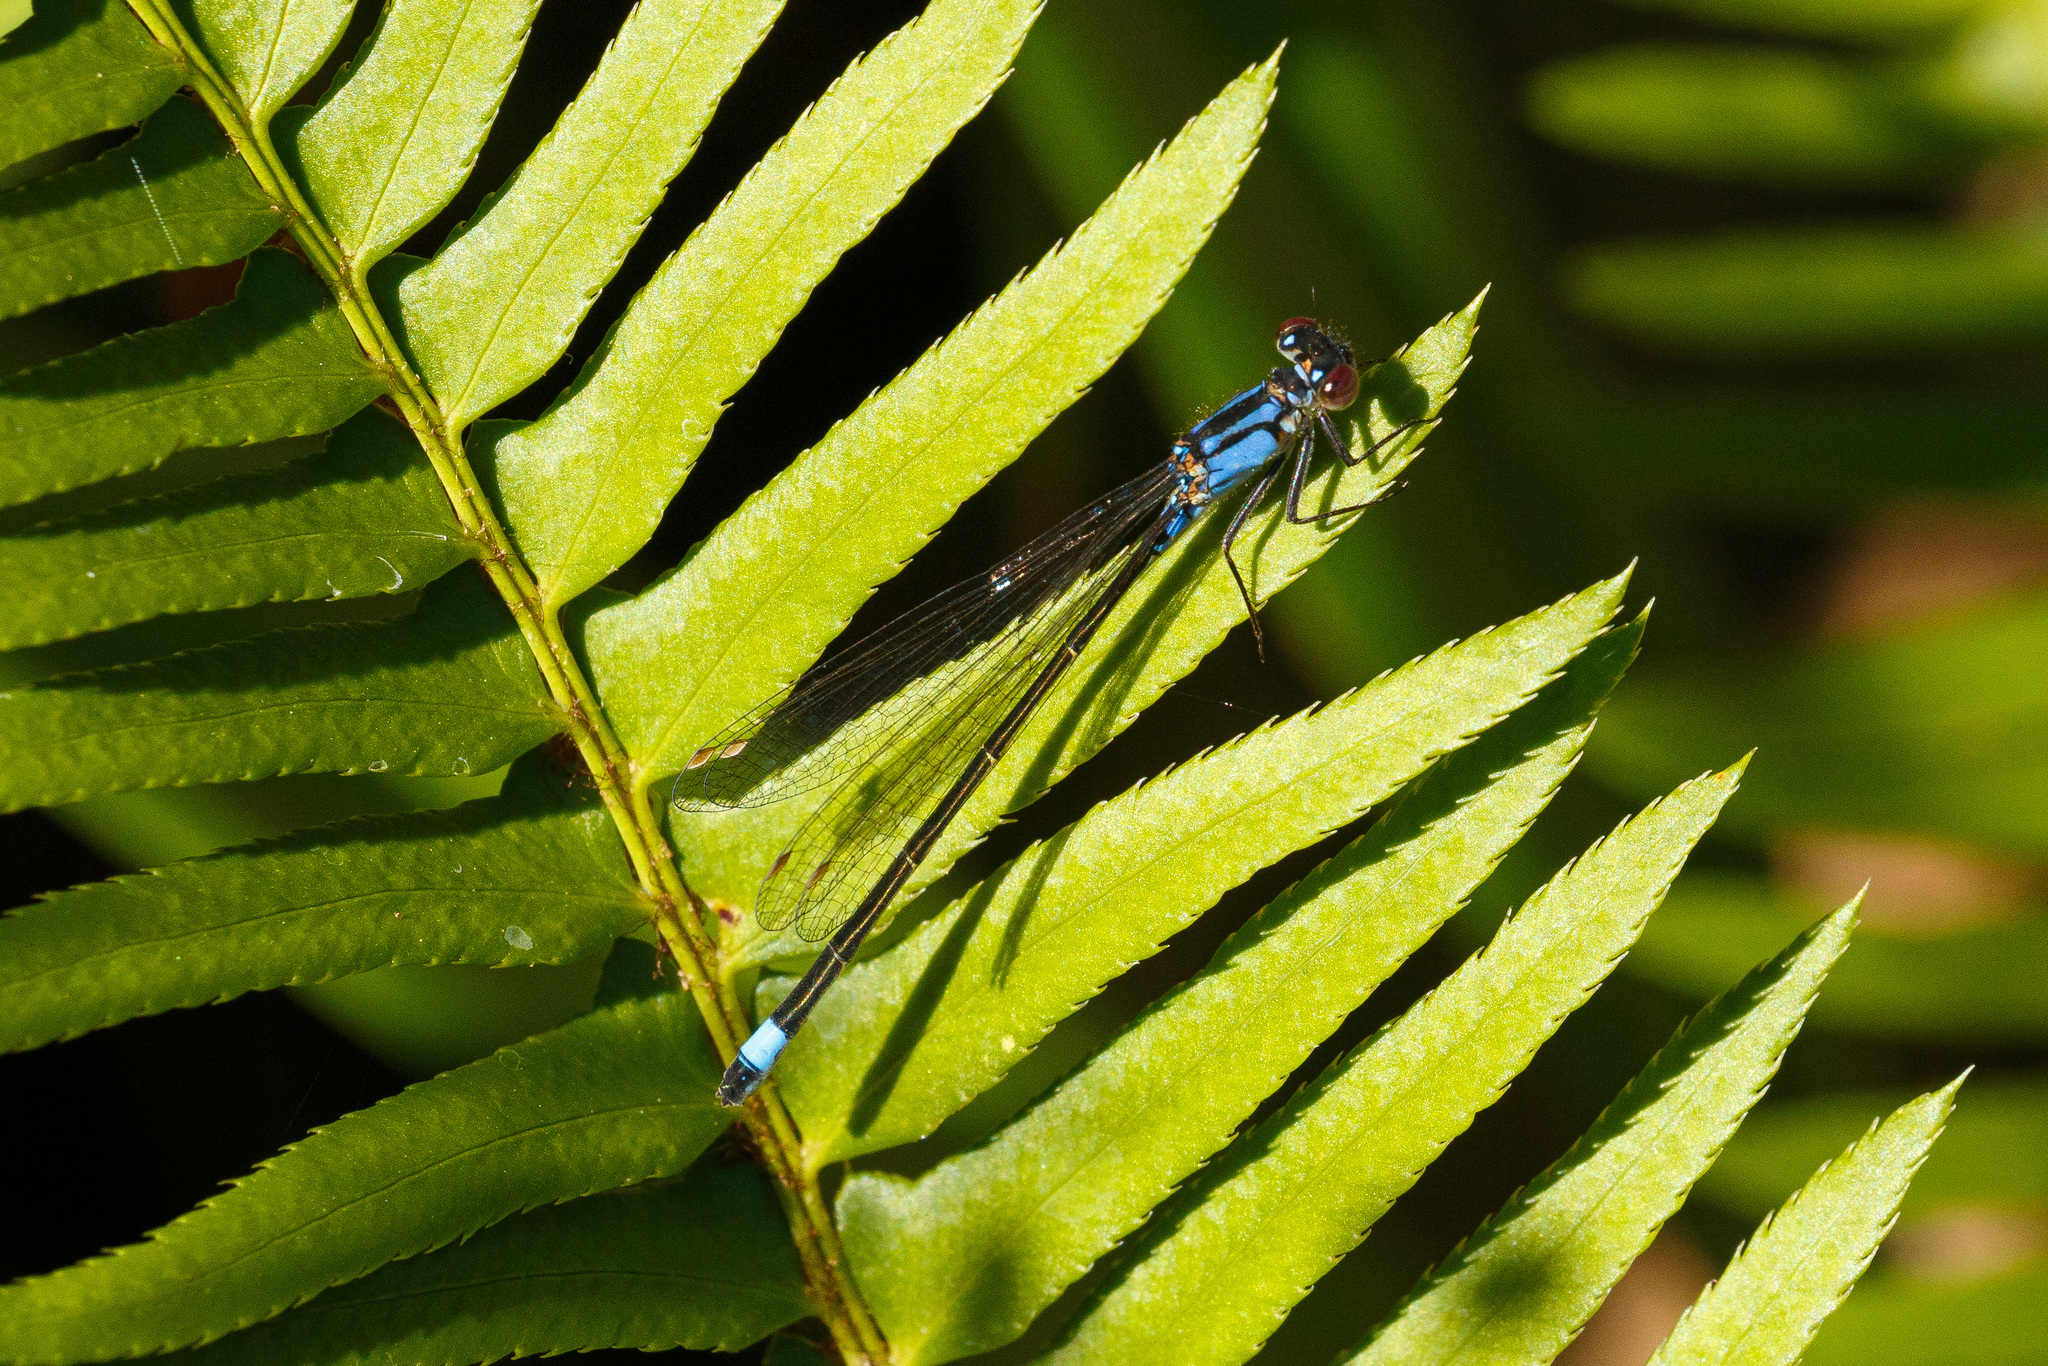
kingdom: Animalia
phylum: Arthropoda
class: Insecta
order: Odonata
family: Coenagrionidae
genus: Ischnura
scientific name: Ischnura cervula
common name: Pacific forktail
